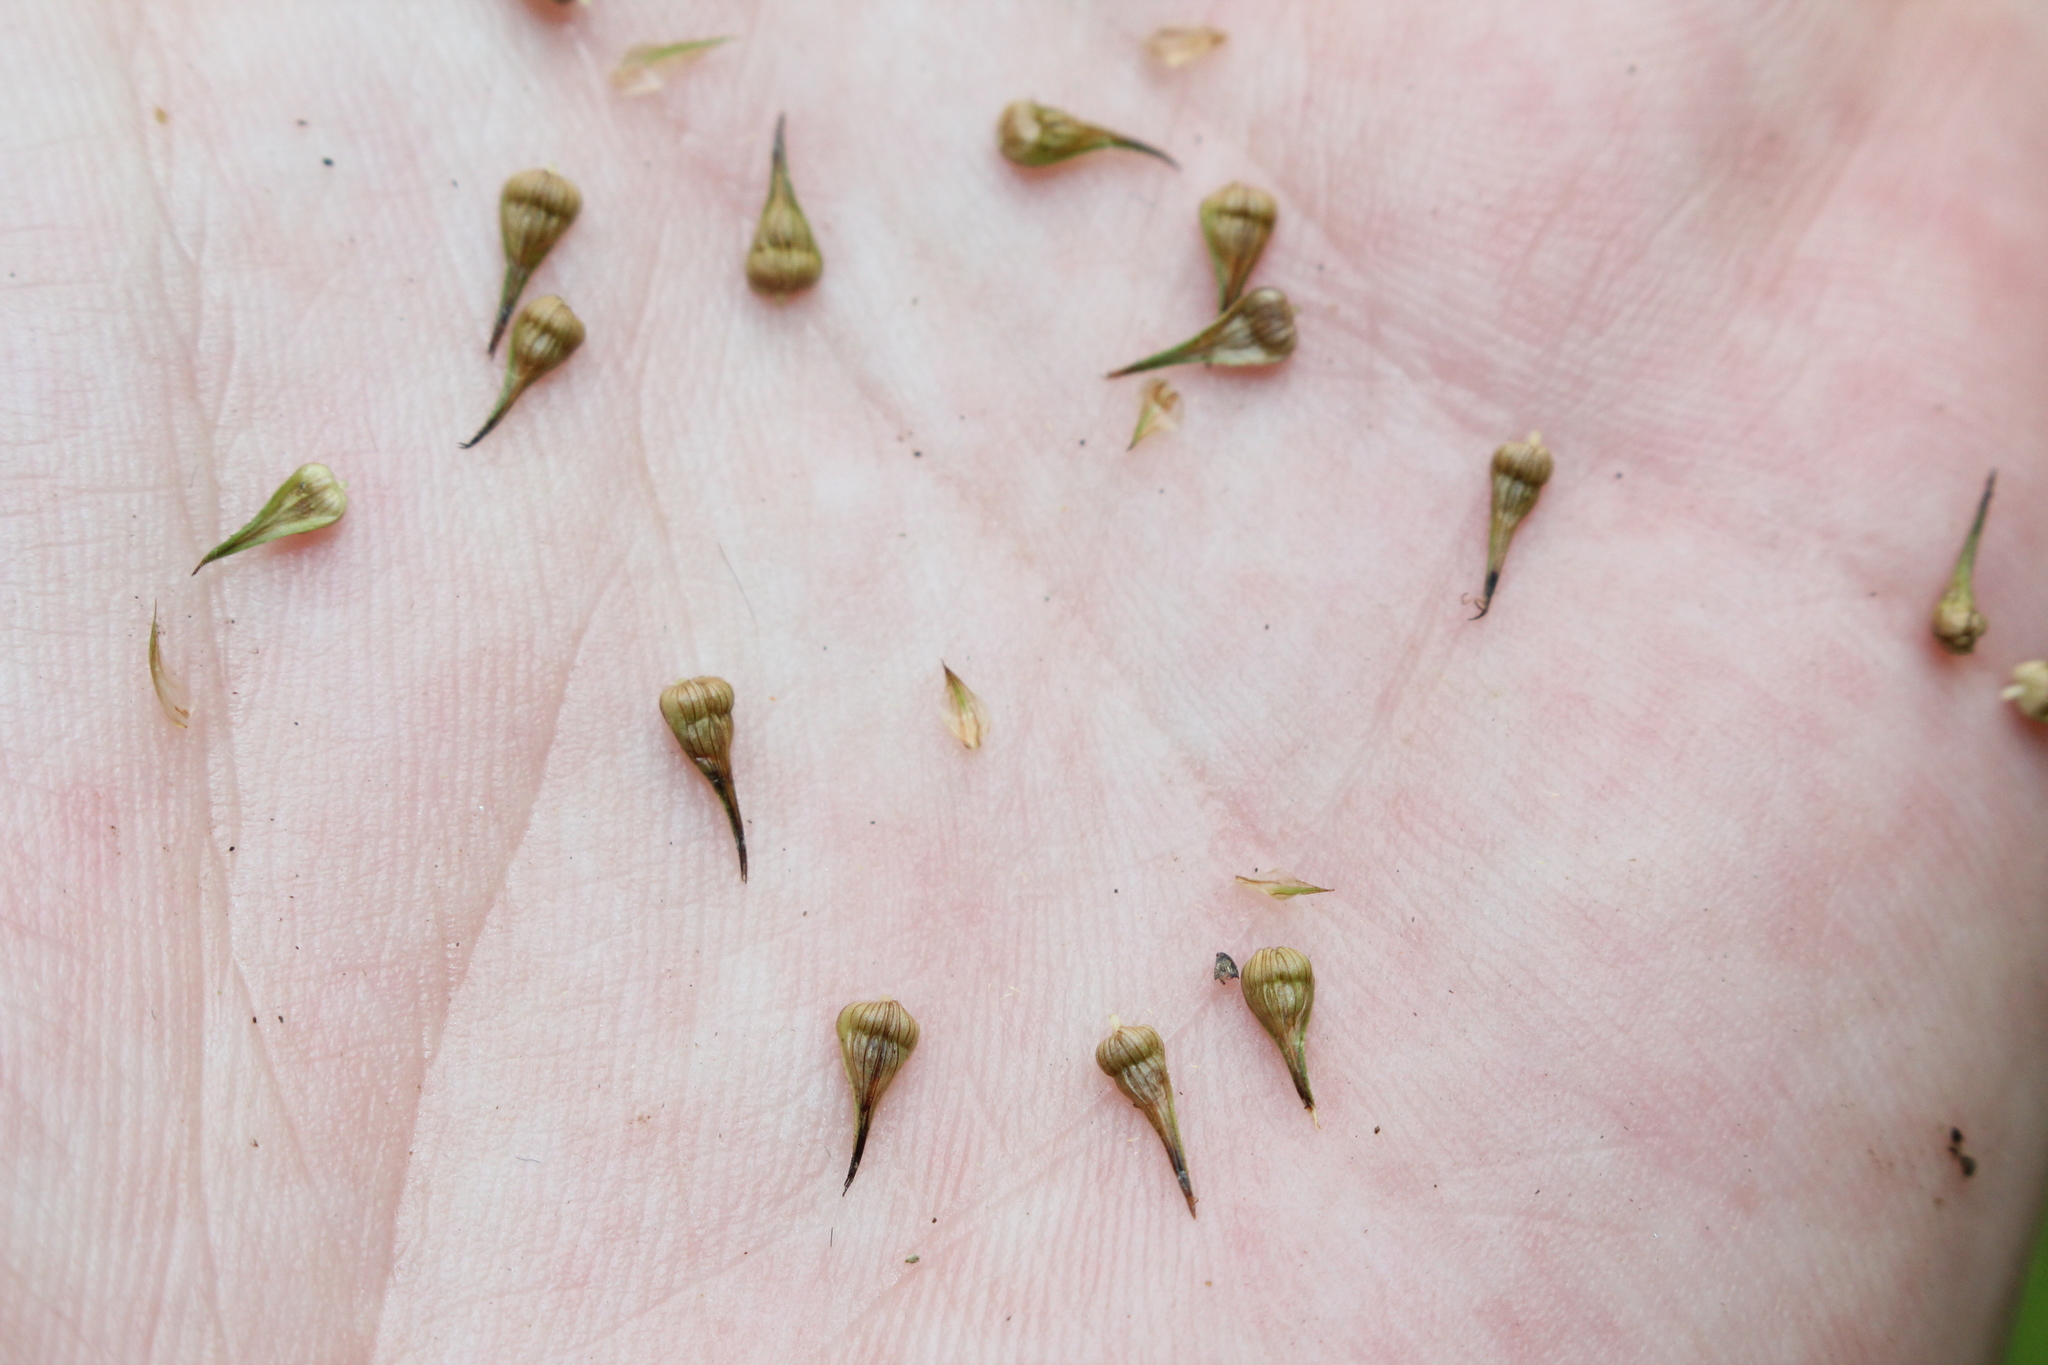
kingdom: Plantae
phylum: Tracheophyta
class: Liliopsida
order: Poales
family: Cyperaceae
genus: Carex
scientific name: Carex laevivaginata
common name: Smooth-sheathed fox sedge
